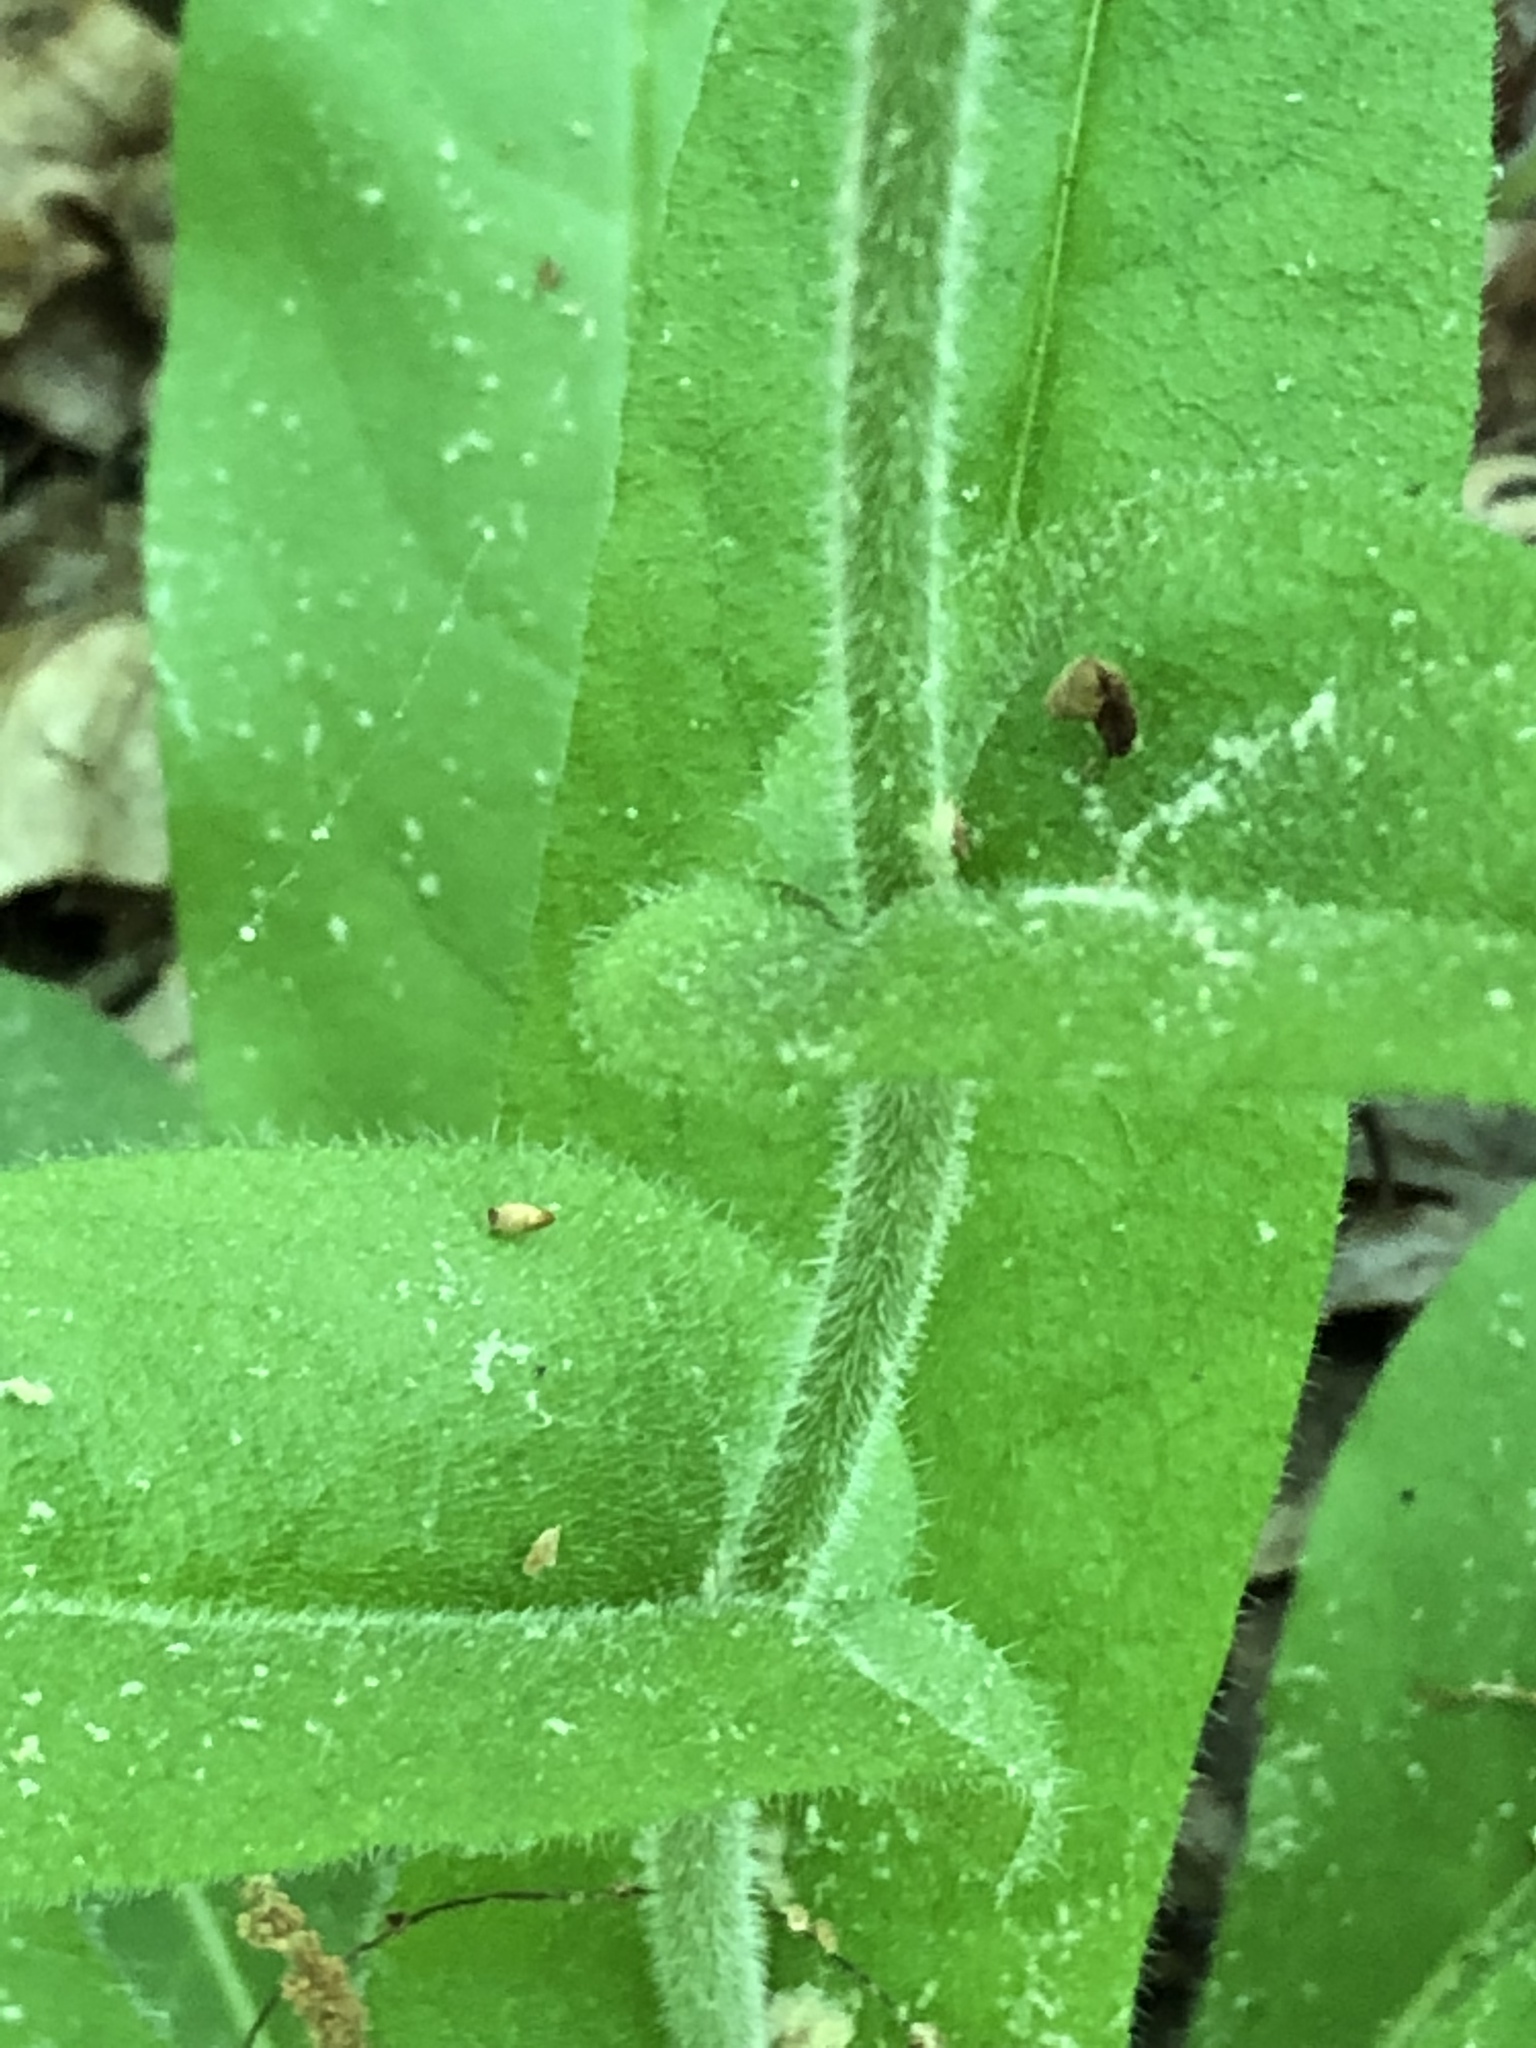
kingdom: Plantae
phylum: Tracheophyta
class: Magnoliopsida
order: Boraginales
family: Boraginaceae
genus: Andersonglossum
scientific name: Andersonglossum virginianum
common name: Wild comfrey
